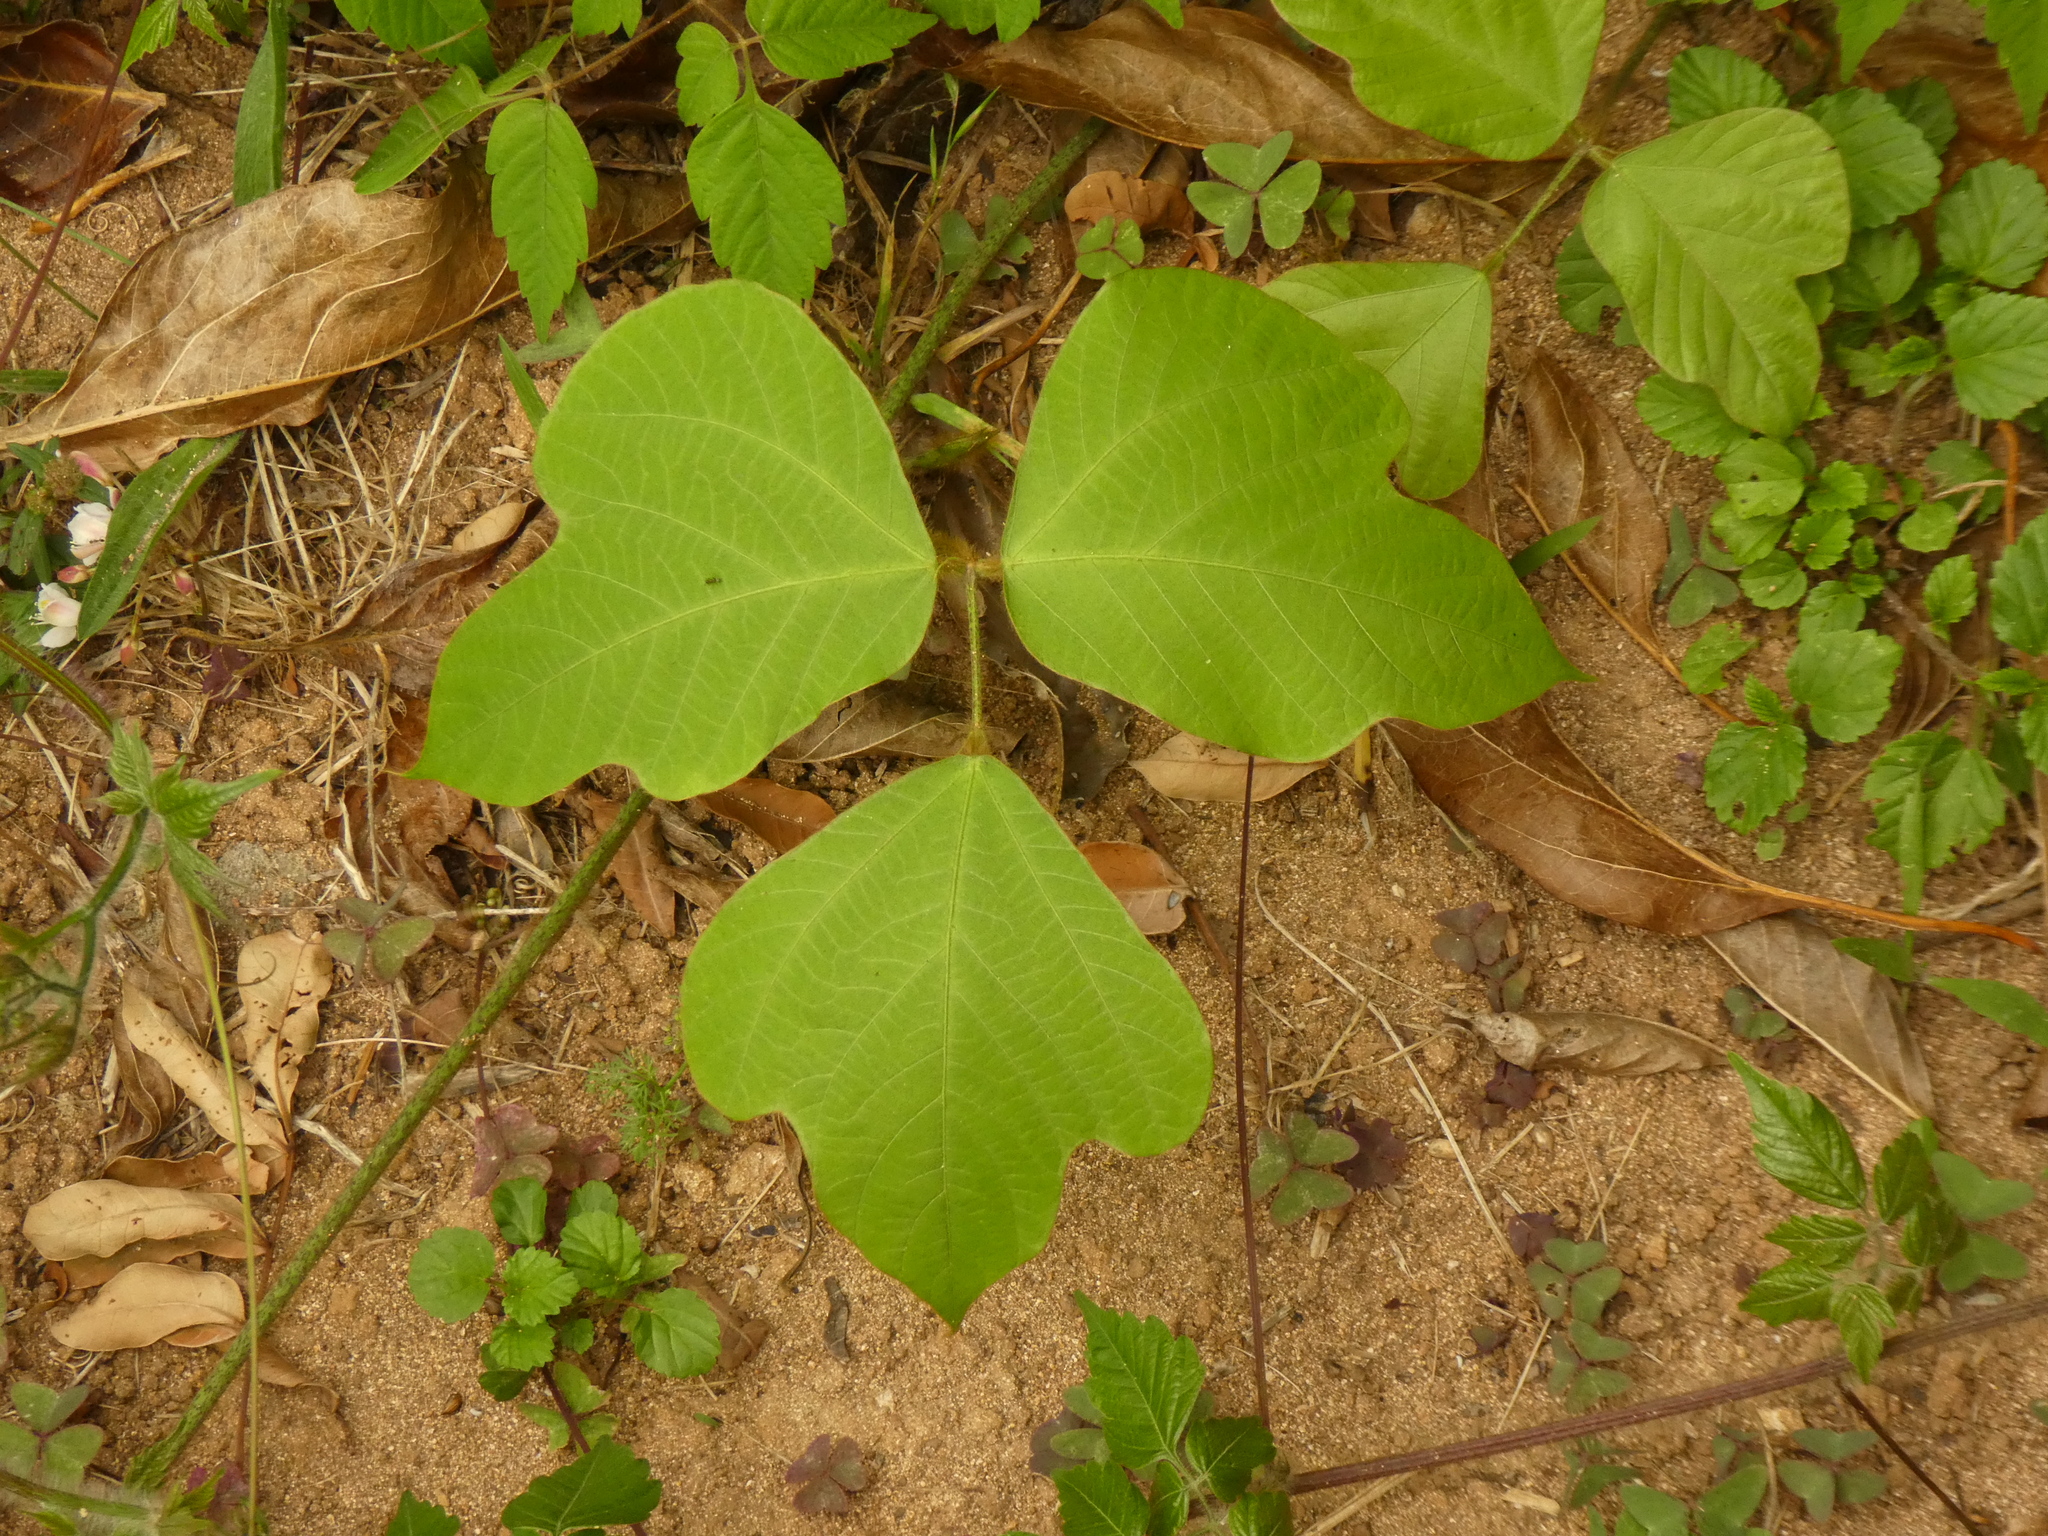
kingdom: Plantae
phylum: Tracheophyta
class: Magnoliopsida
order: Fabales
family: Fabaceae
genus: Pueraria
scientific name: Pueraria montana
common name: Kudzu
